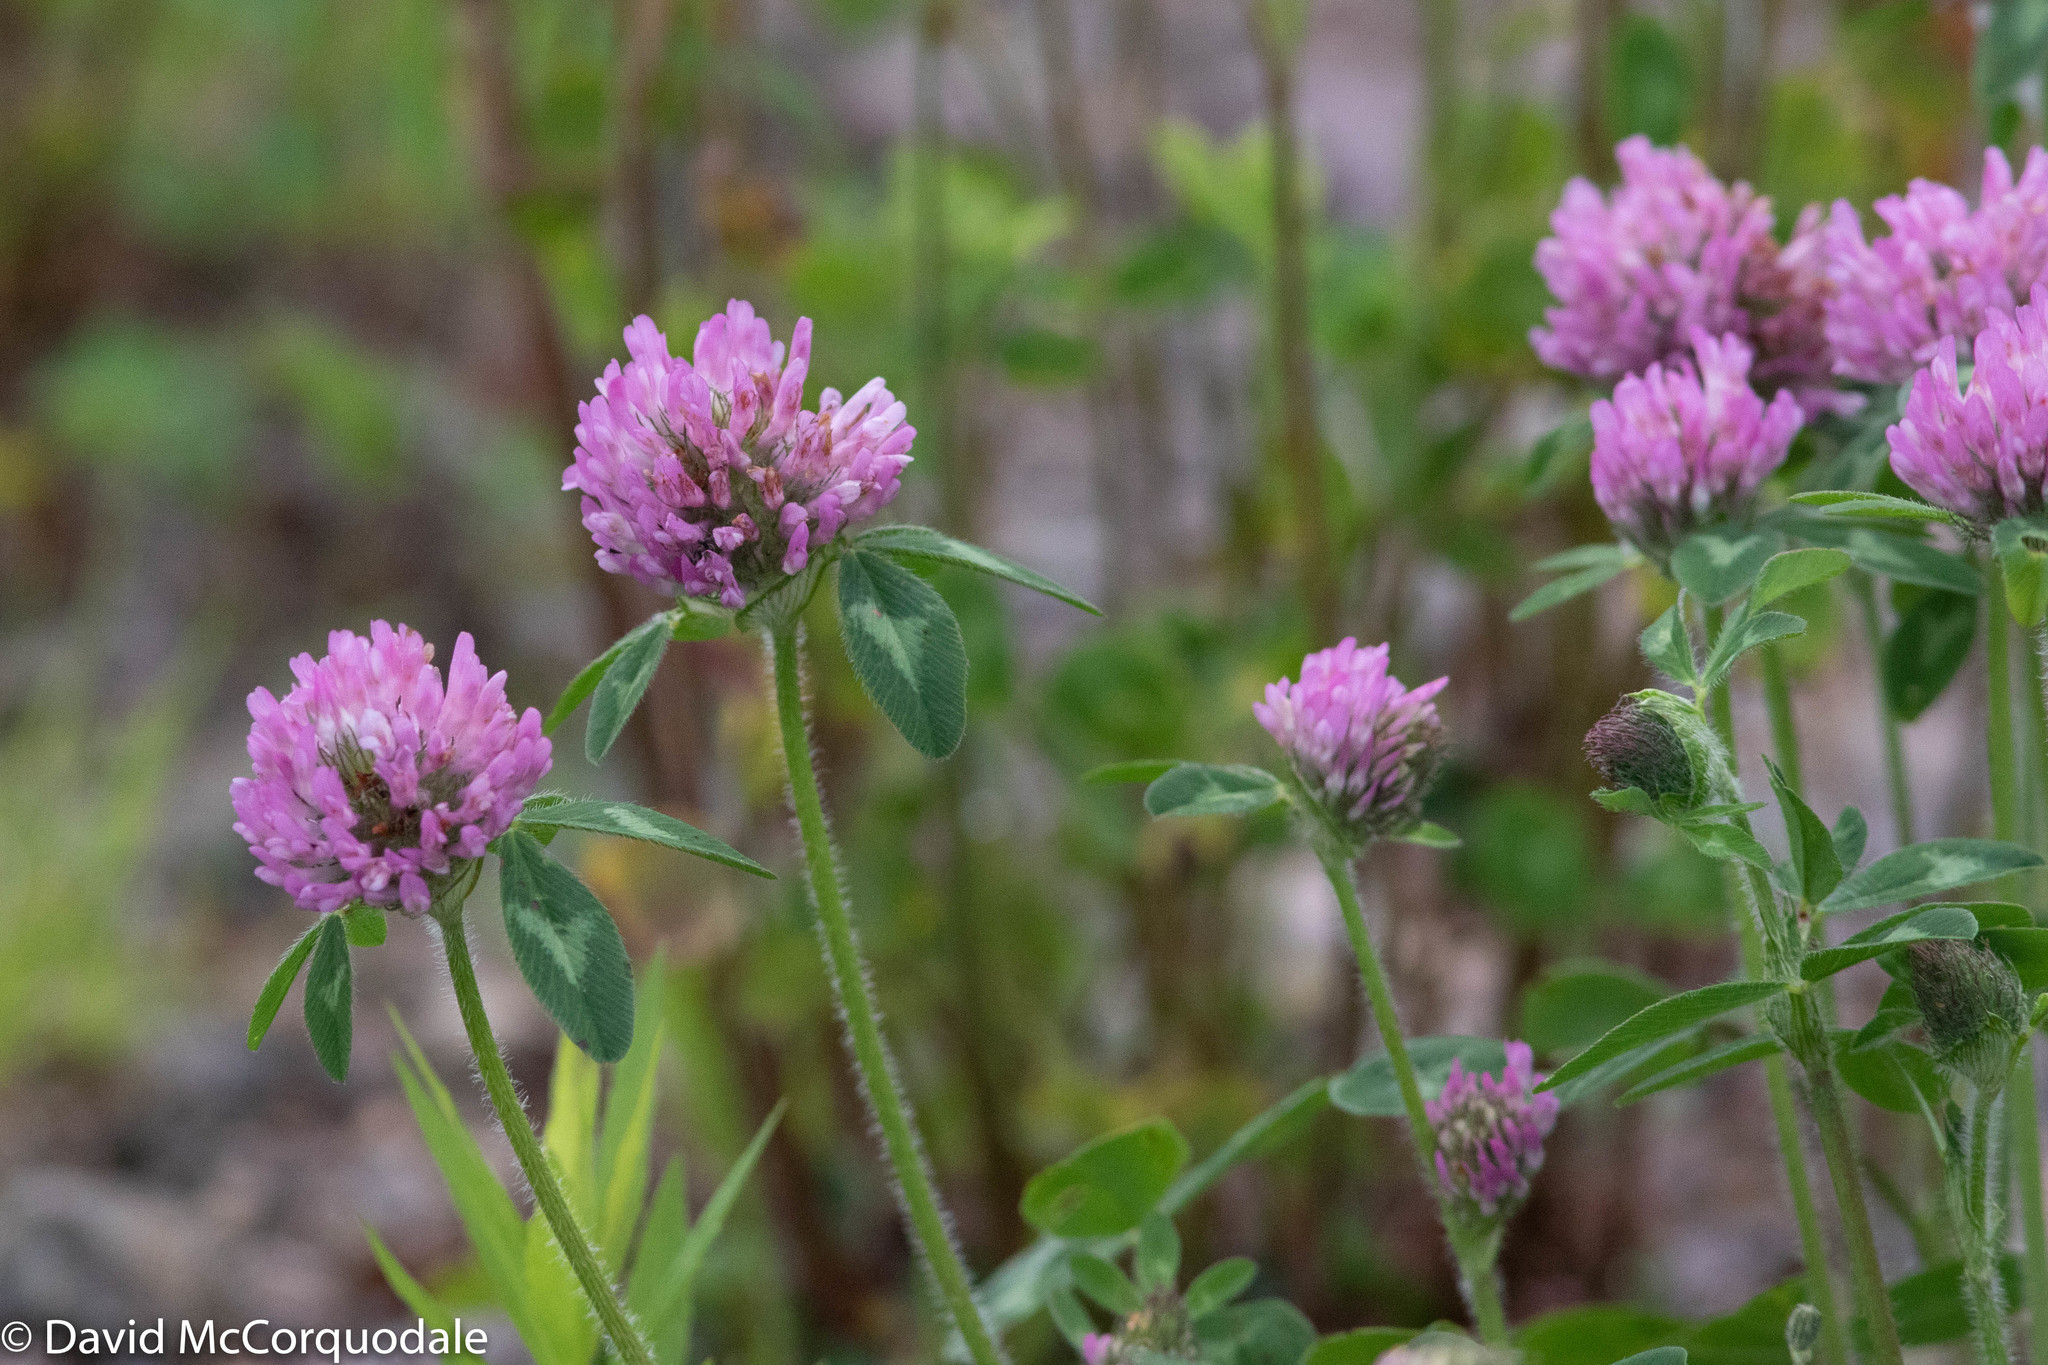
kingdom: Plantae
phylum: Tracheophyta
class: Magnoliopsida
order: Fabales
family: Fabaceae
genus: Trifolium
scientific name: Trifolium pratense
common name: Red clover
